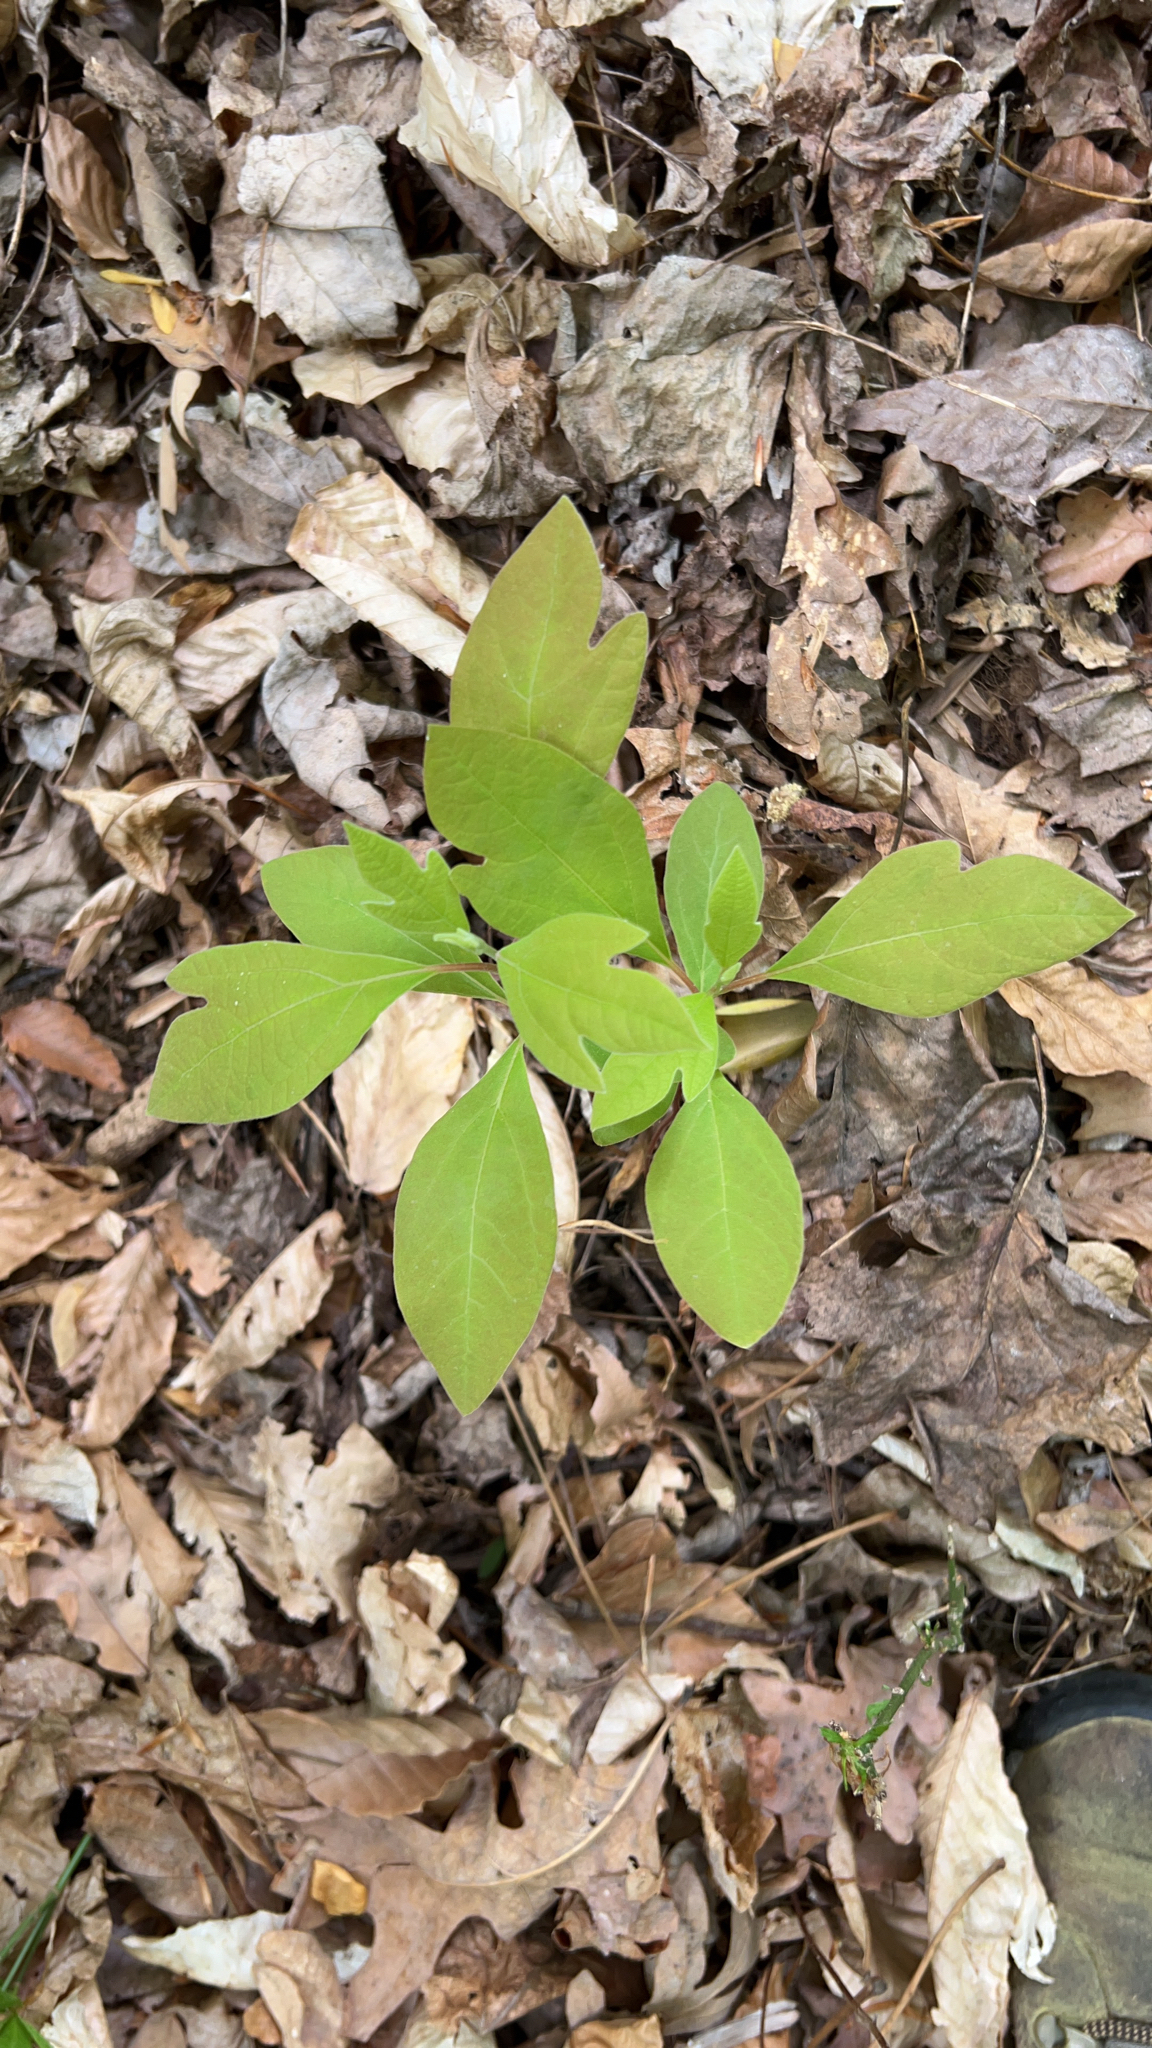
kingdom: Plantae
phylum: Tracheophyta
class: Magnoliopsida
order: Laurales
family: Lauraceae
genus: Sassafras
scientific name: Sassafras albidum
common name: Sassafras
